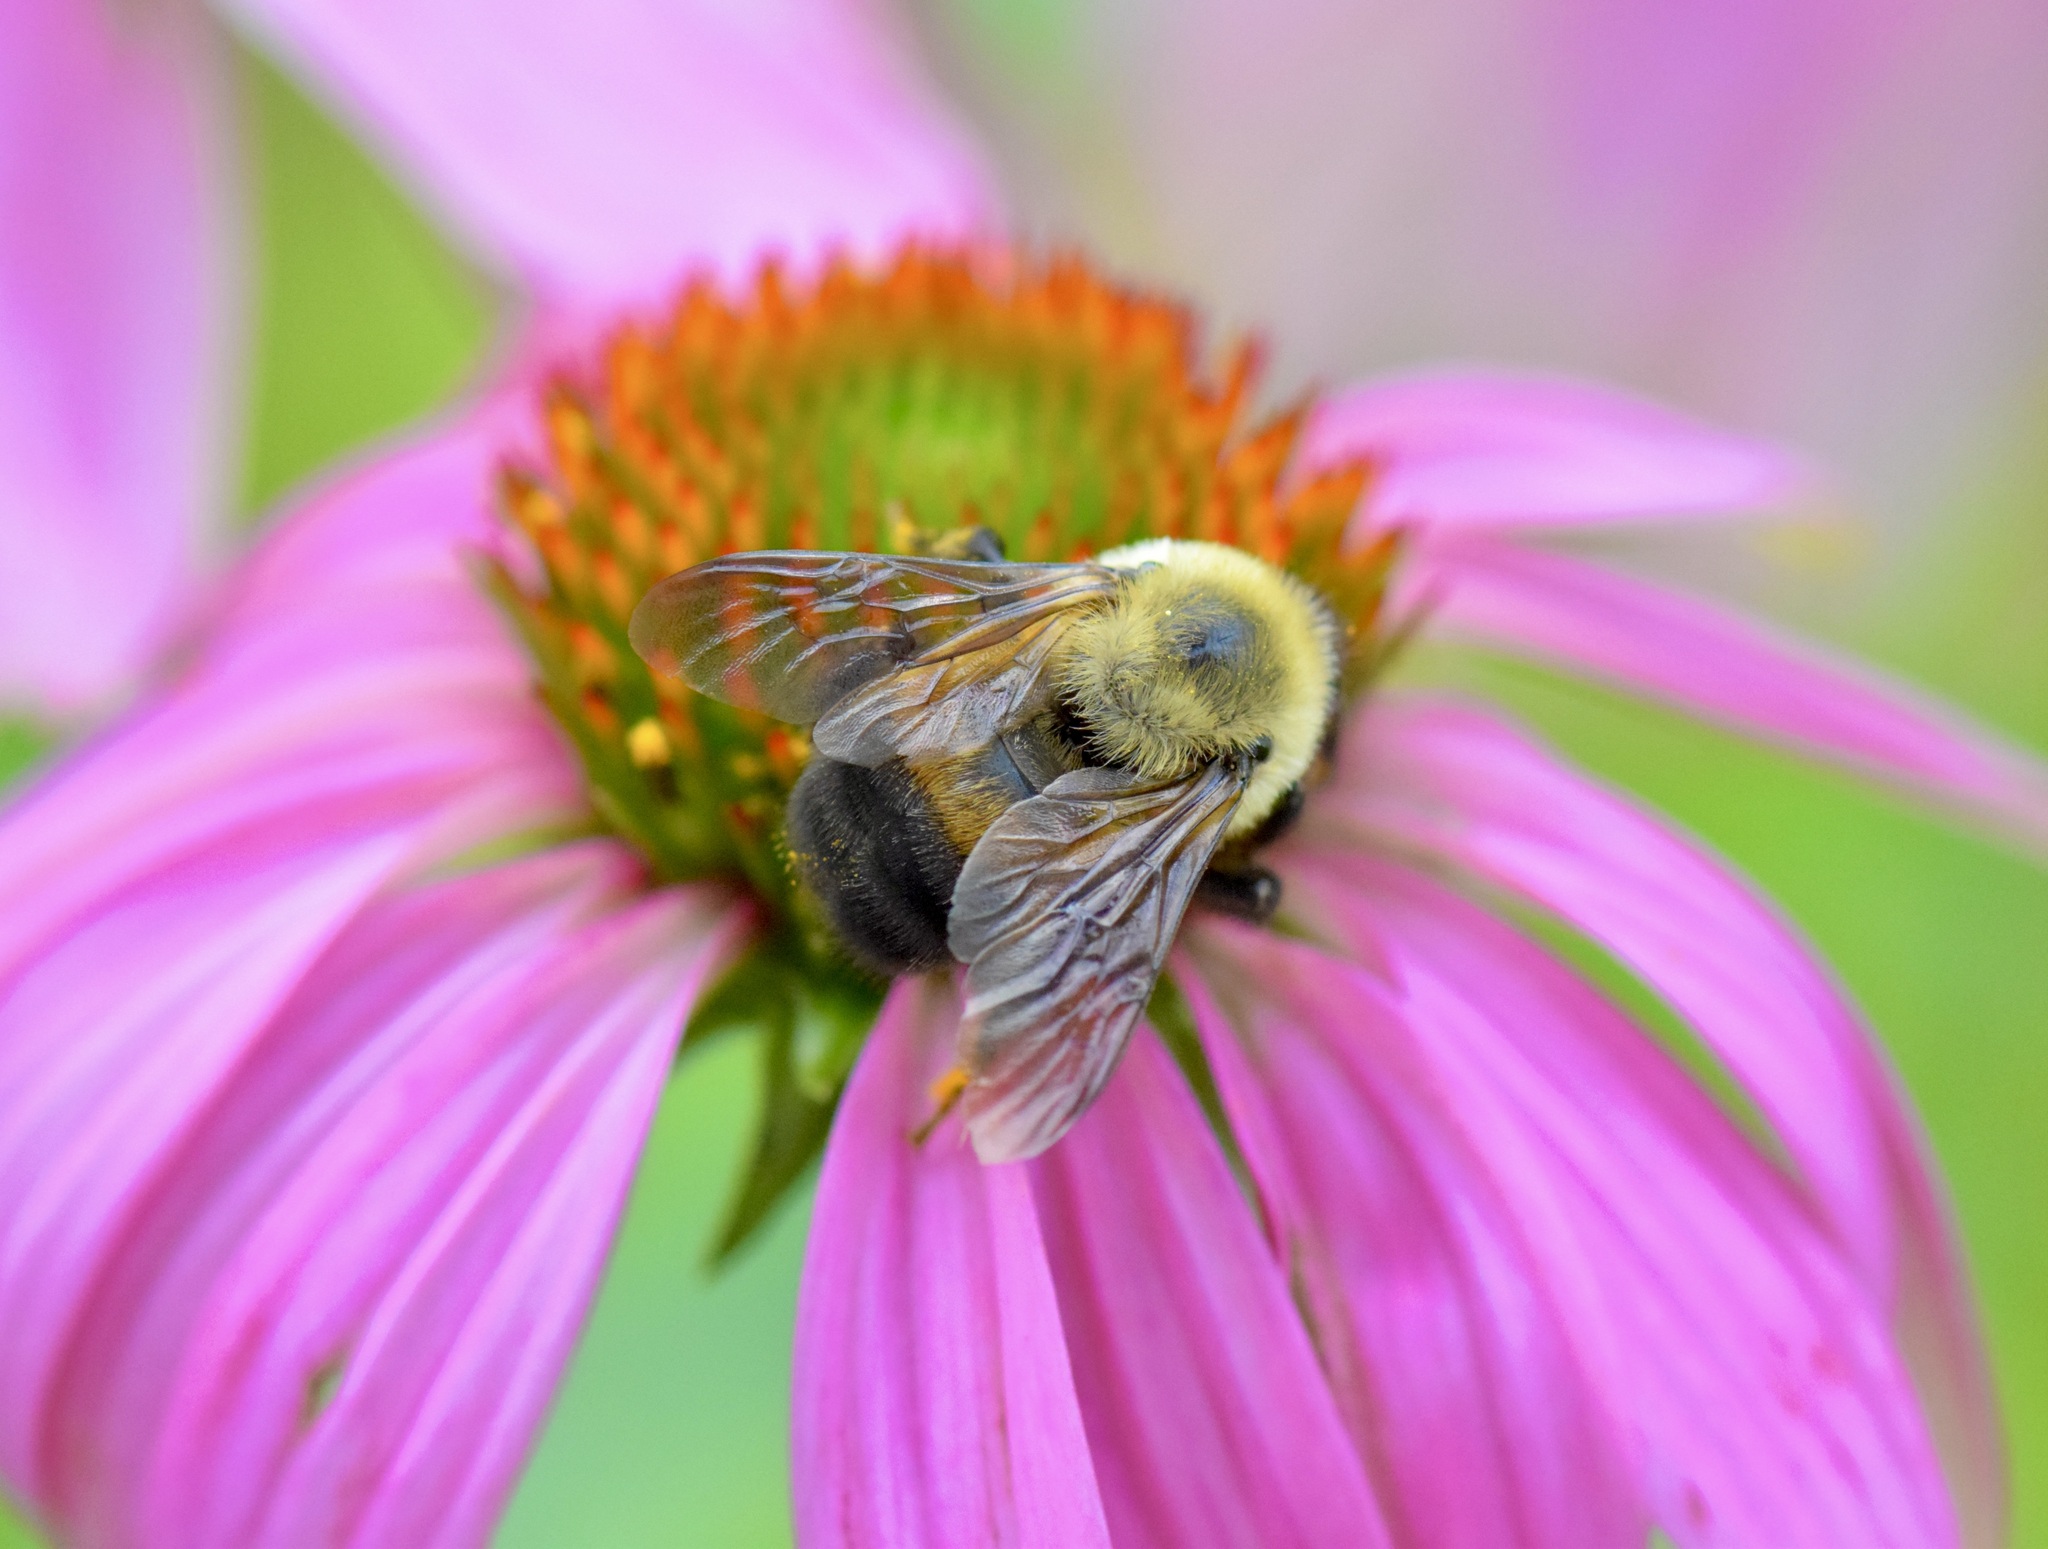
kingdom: Animalia
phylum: Arthropoda
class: Insecta
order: Hymenoptera
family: Apidae
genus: Bombus
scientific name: Bombus griseocollis
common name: Brown-belted bumble bee
